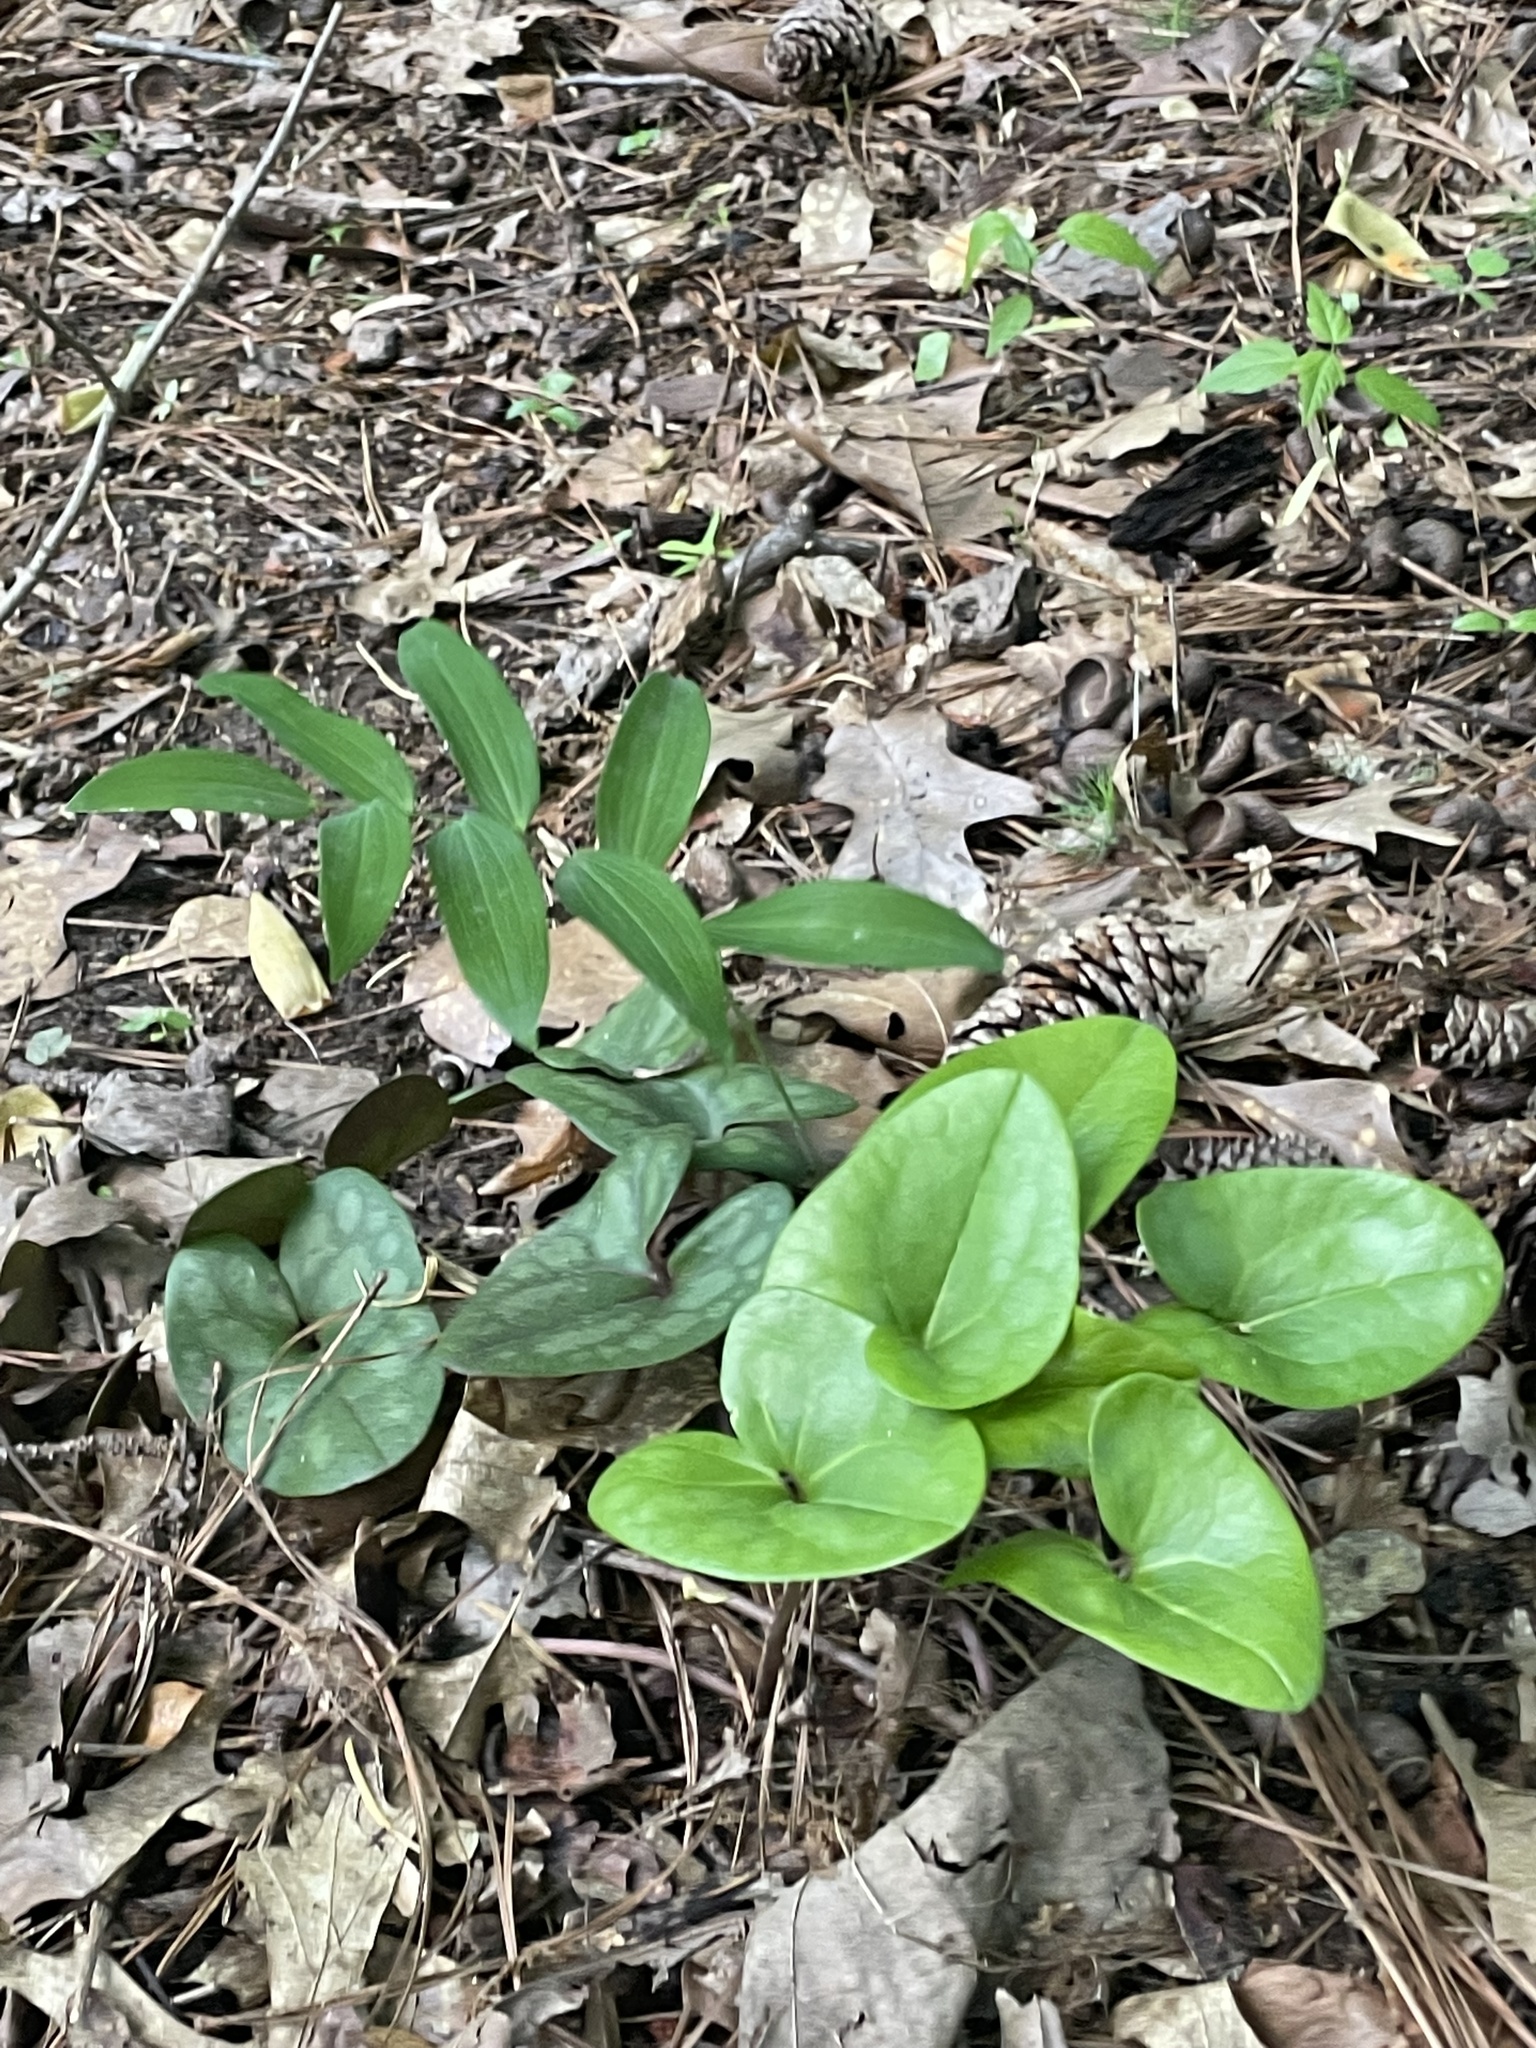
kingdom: Plantae
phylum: Tracheophyta
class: Magnoliopsida
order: Piperales
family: Aristolochiaceae
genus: Hexastylis
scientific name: Hexastylis arifolia
